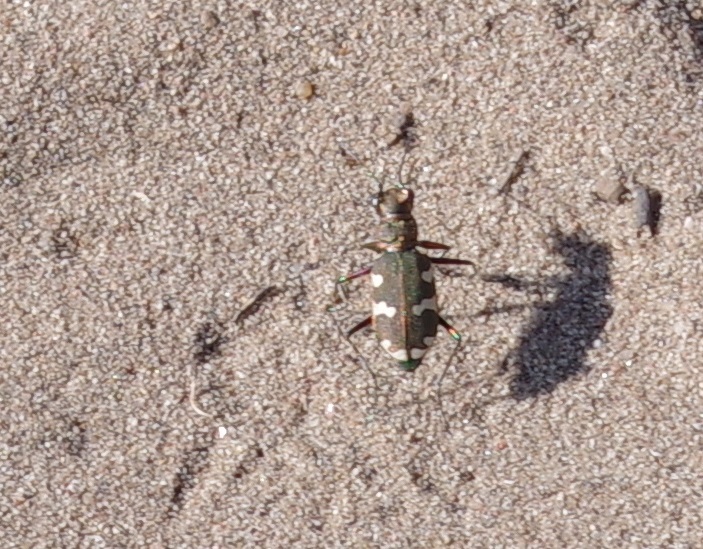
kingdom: Animalia
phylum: Arthropoda
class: Insecta
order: Coleoptera
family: Carabidae
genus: Cicindela
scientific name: Cicindela hybrida
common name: Northern dune tiger beetle
